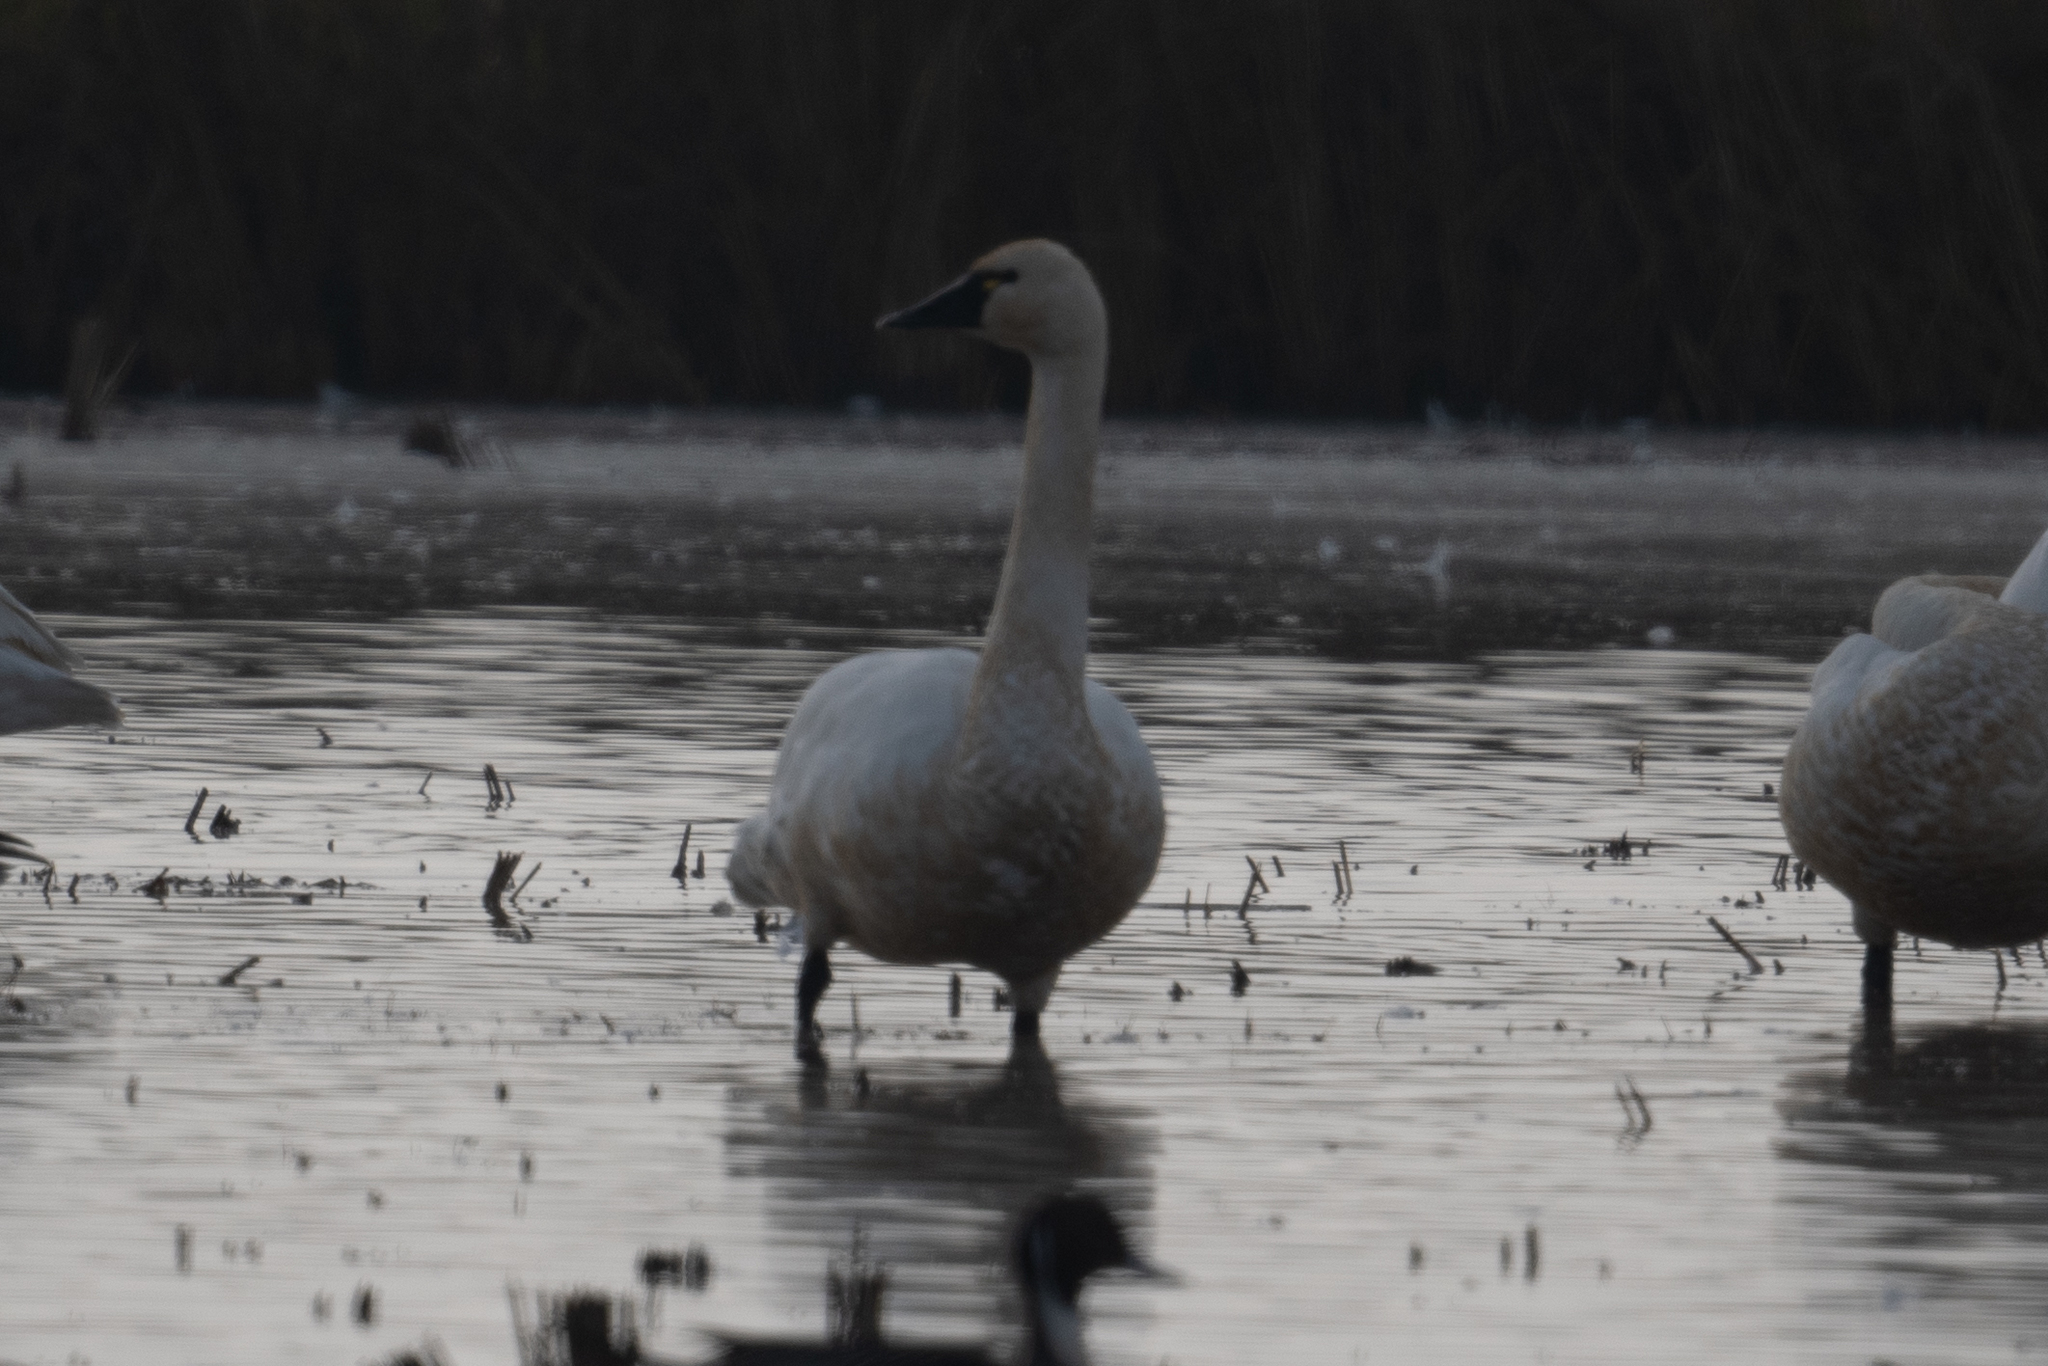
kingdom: Animalia
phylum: Chordata
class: Aves
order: Anseriformes
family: Anatidae
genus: Cygnus
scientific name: Cygnus columbianus
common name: Tundra swan
